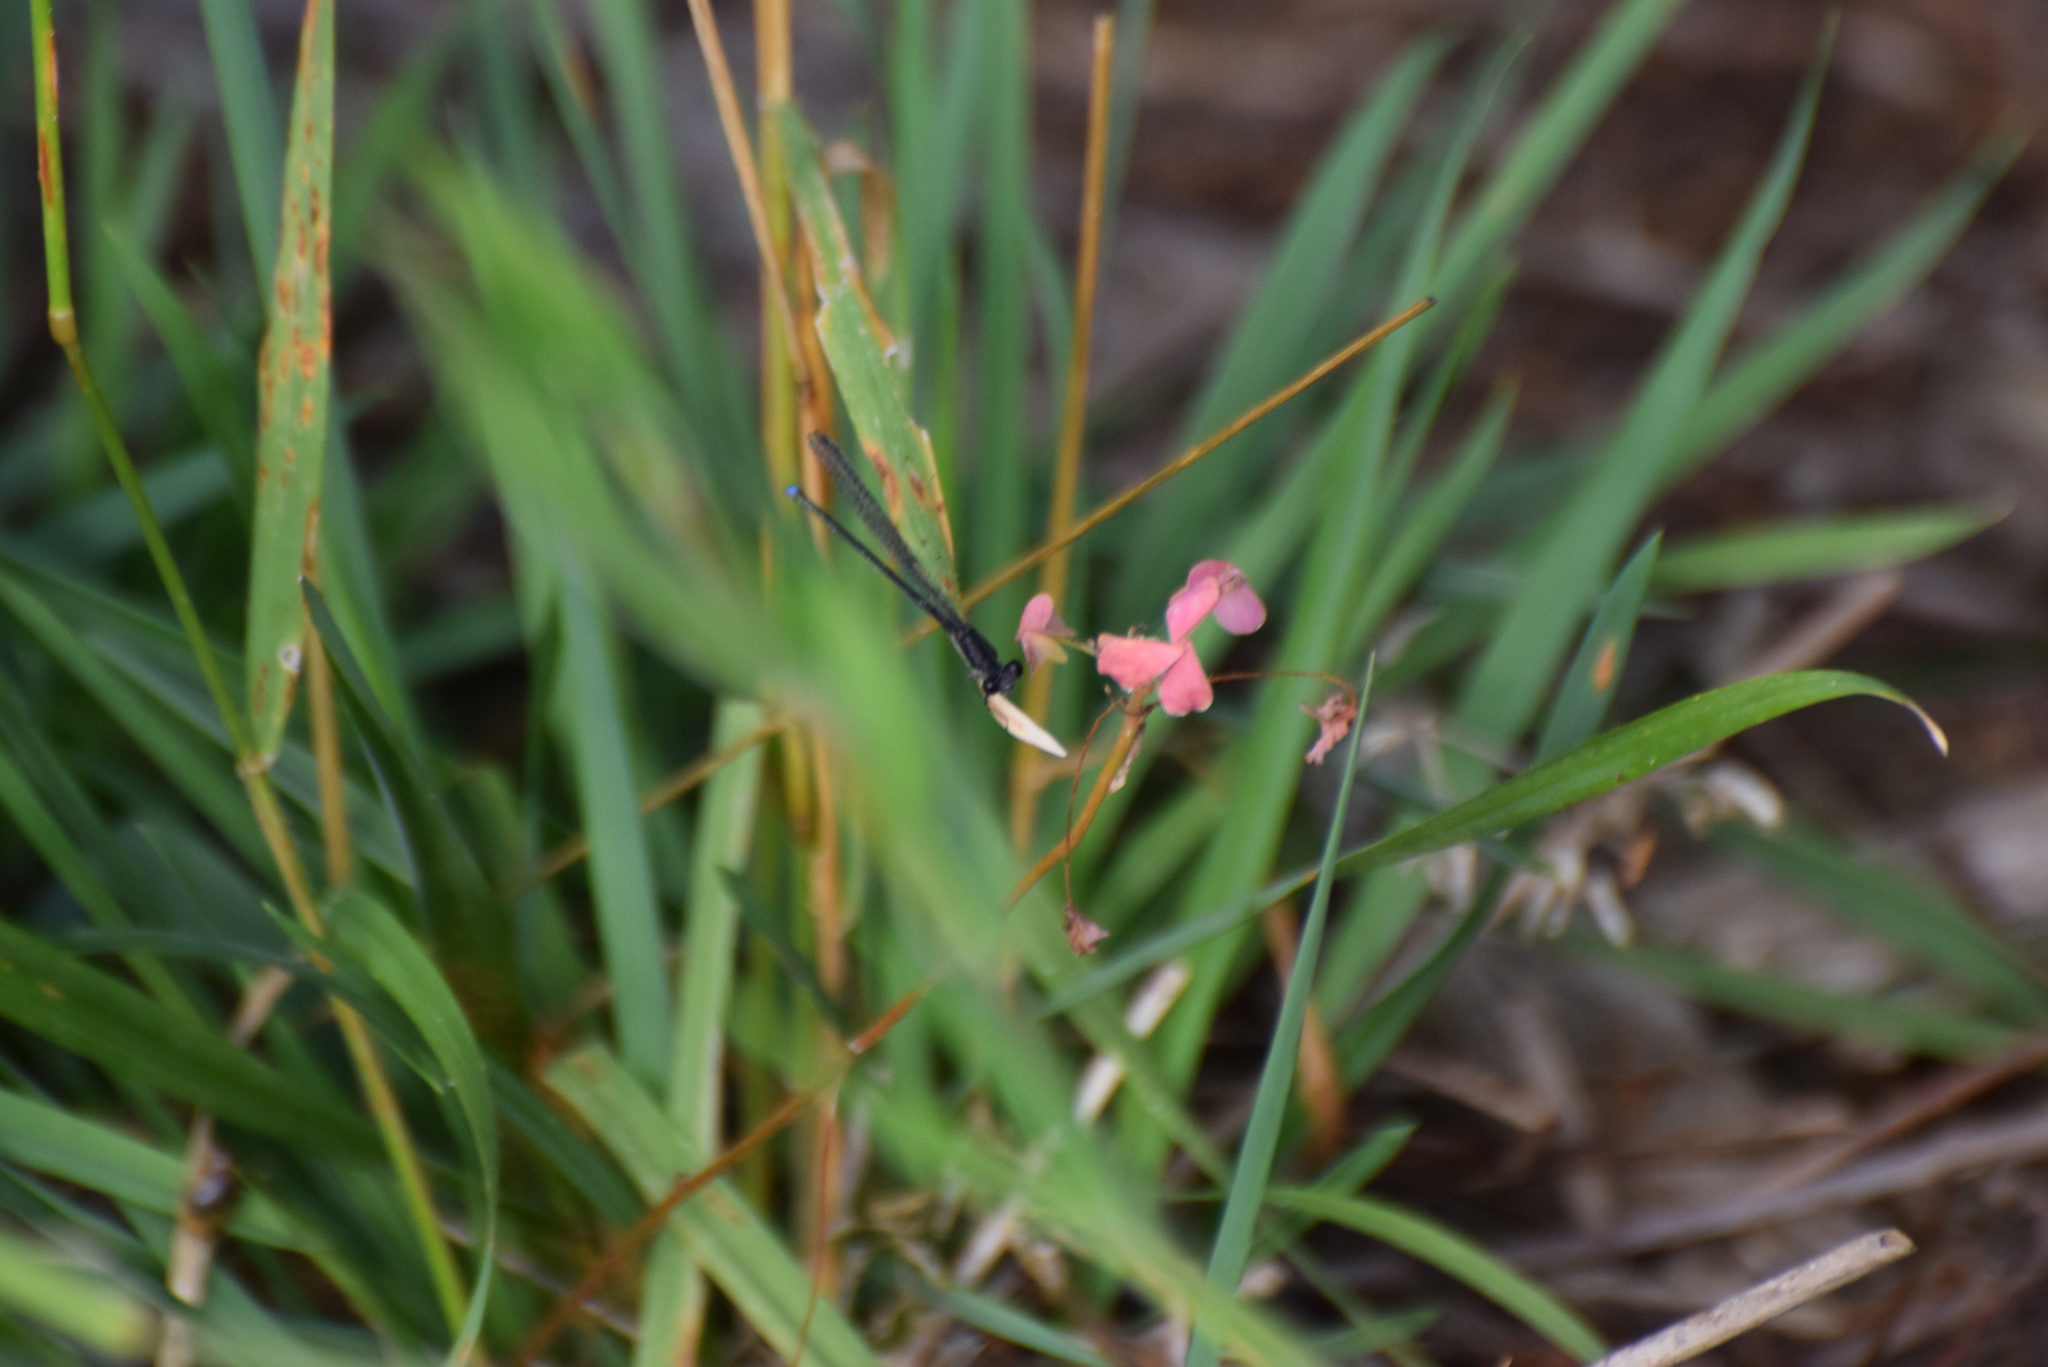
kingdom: Animalia
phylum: Arthropoda
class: Insecta
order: Odonata
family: Coenagrionidae
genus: Argia
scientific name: Argia tibialis
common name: Blue-tipped dancer
